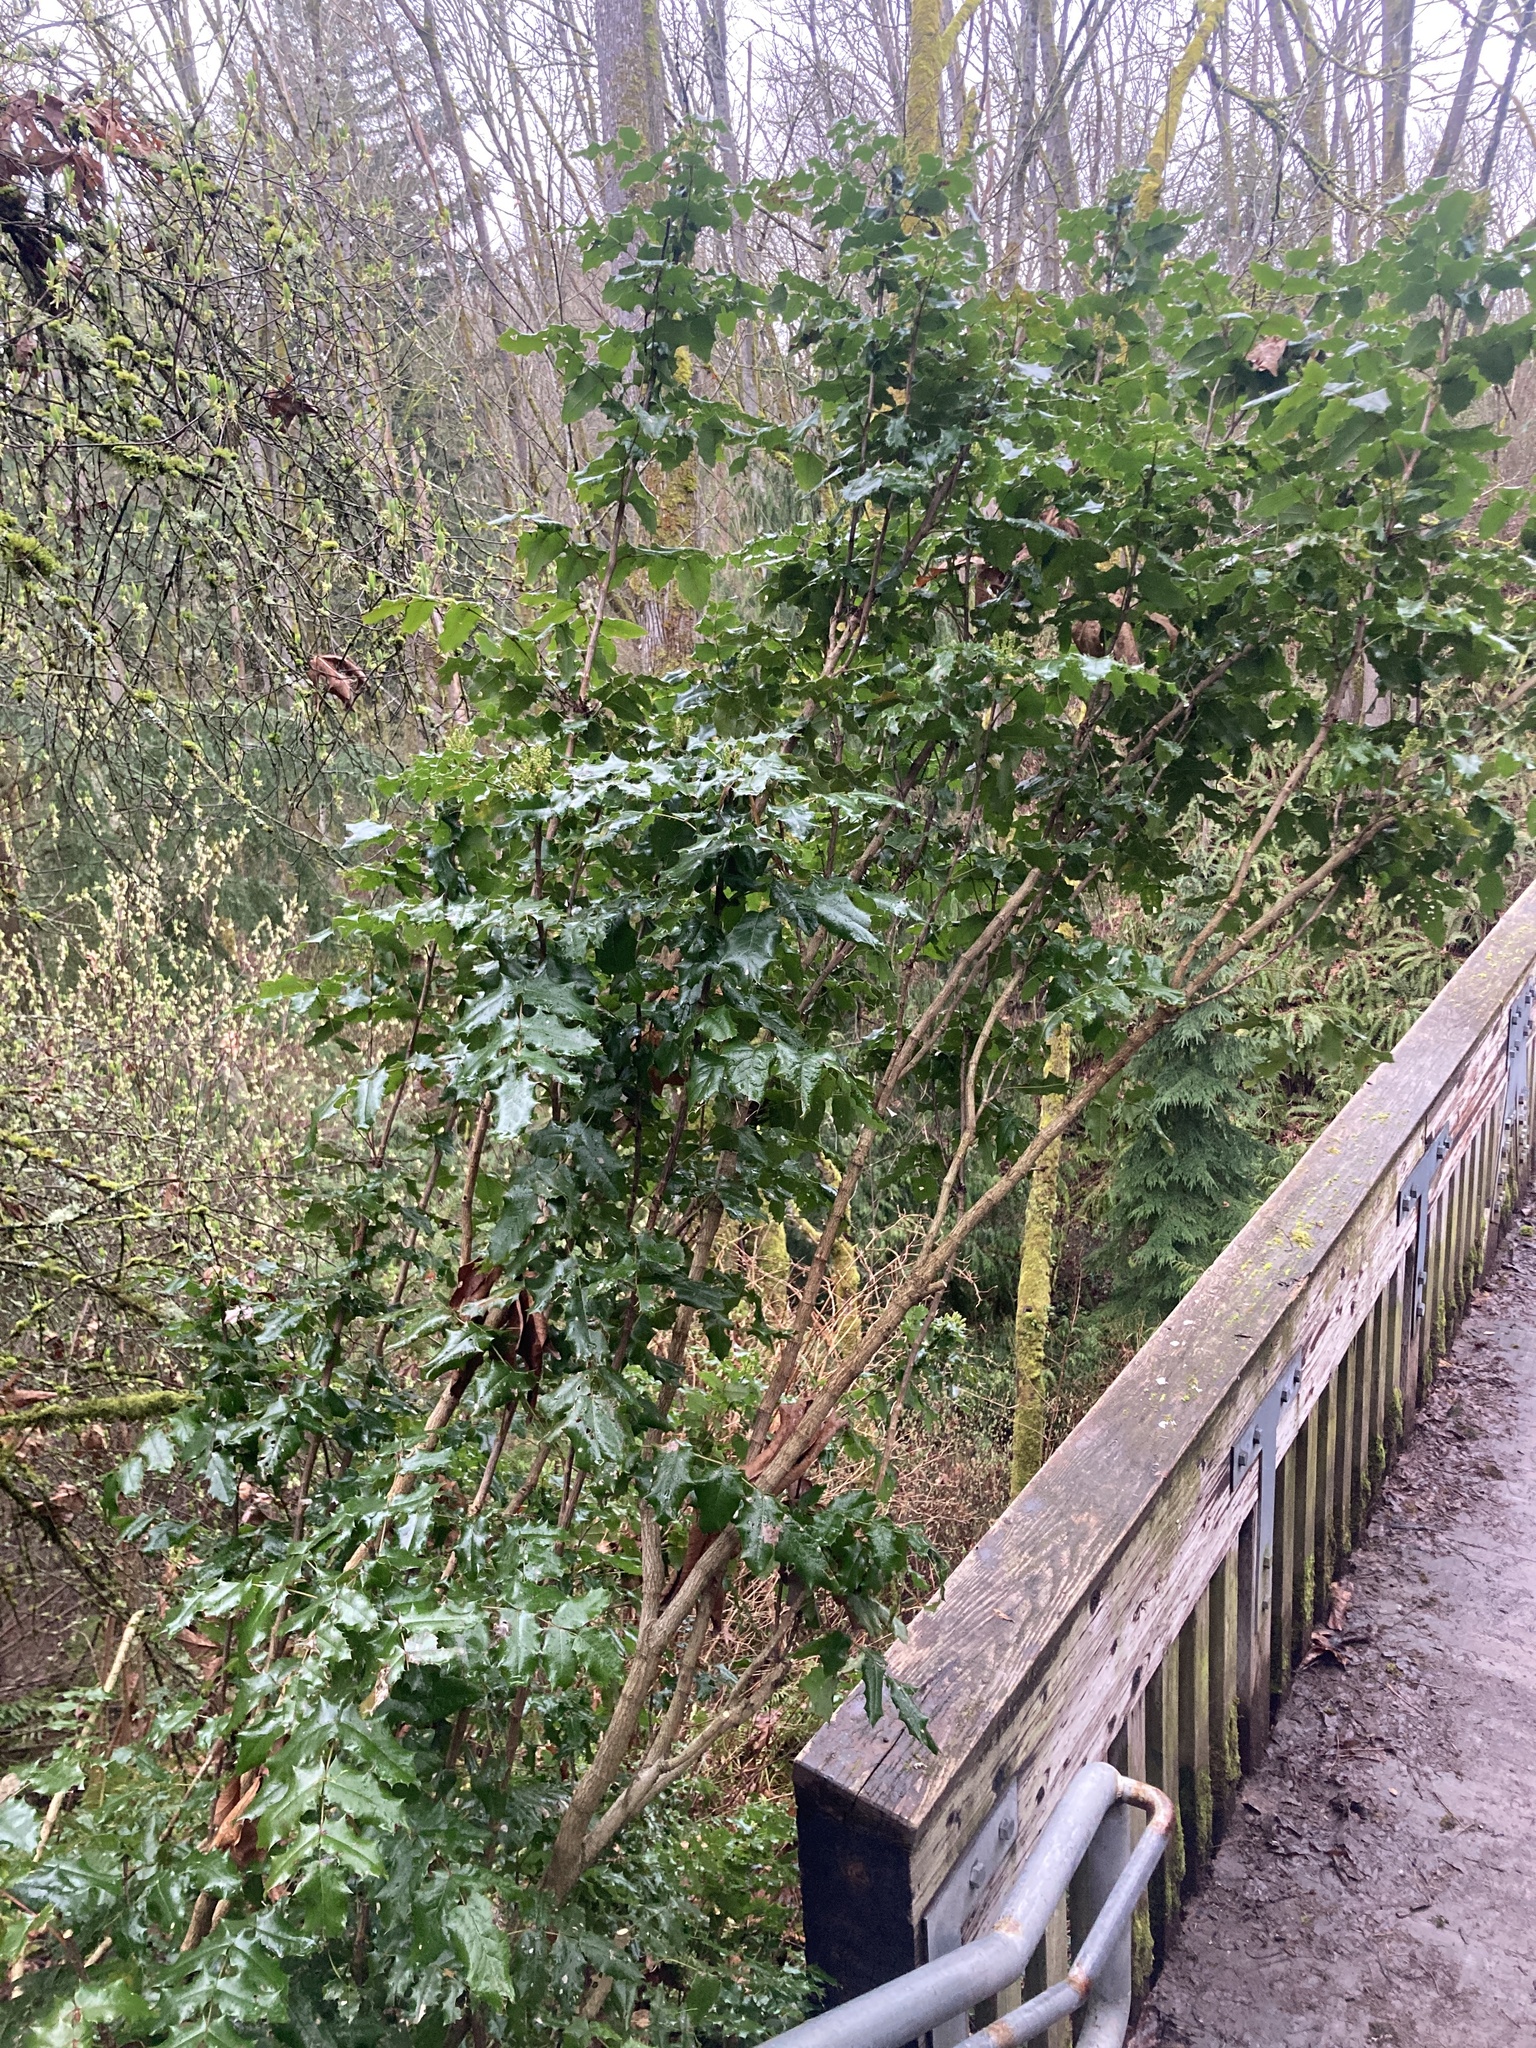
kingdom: Plantae
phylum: Tracheophyta
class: Magnoliopsida
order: Ranunculales
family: Berberidaceae
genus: Mahonia
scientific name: Mahonia aquifolium
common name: Oregon-grape
